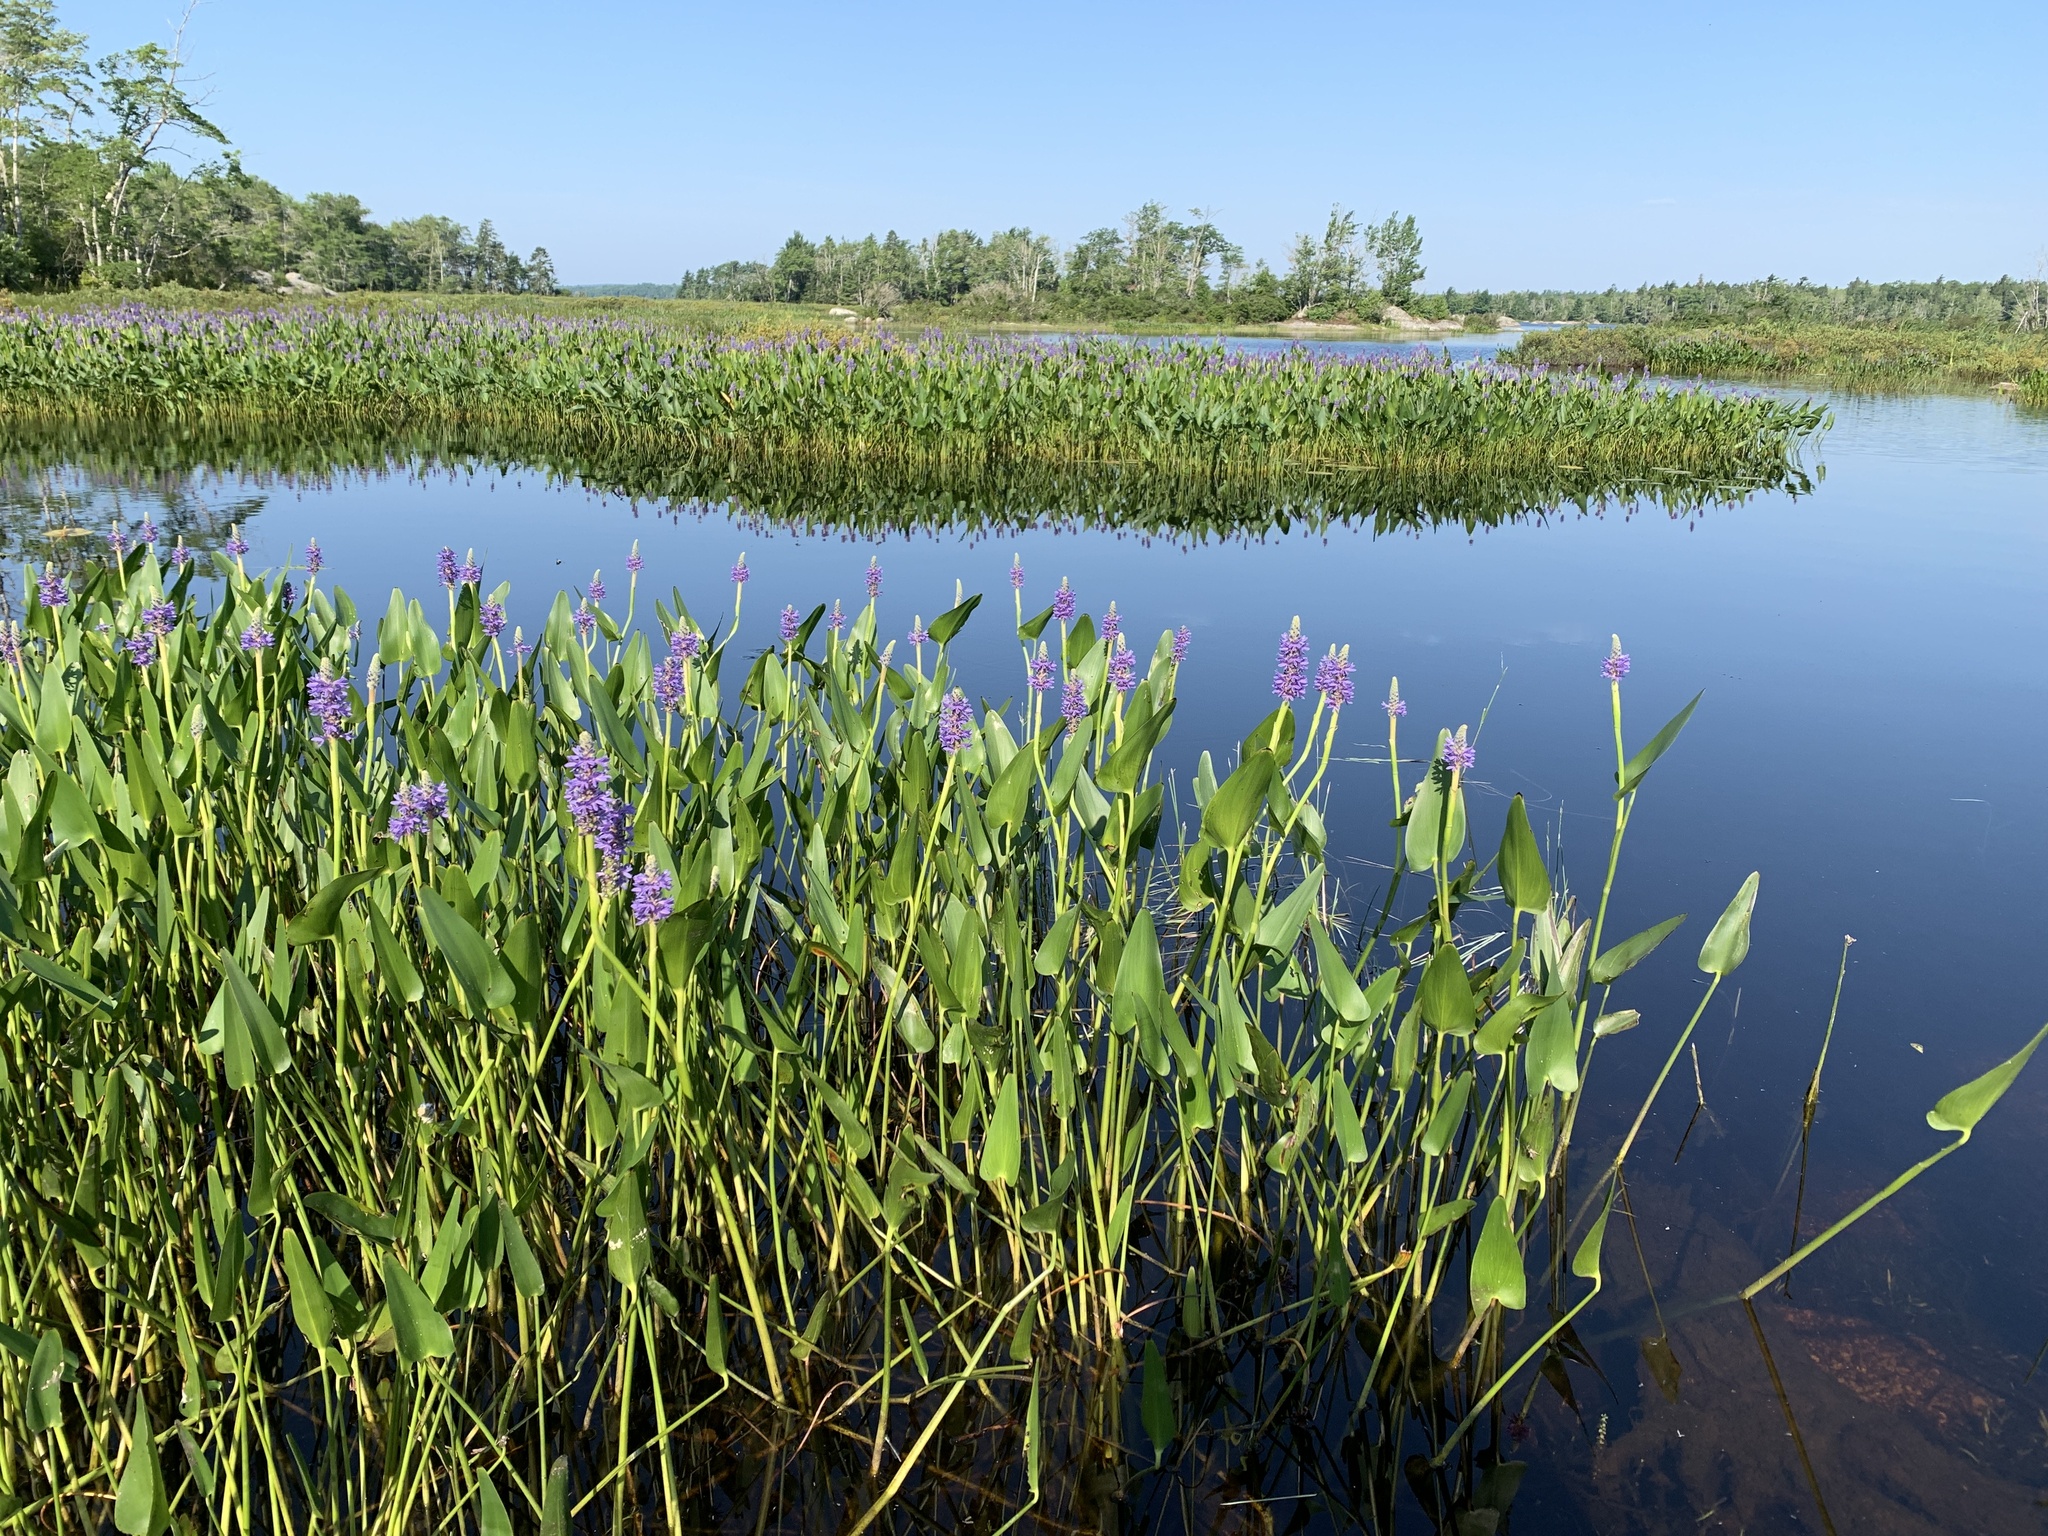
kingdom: Plantae
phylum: Tracheophyta
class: Liliopsida
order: Commelinales
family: Pontederiaceae
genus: Pontederia
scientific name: Pontederia cordata
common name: Pickerelweed
